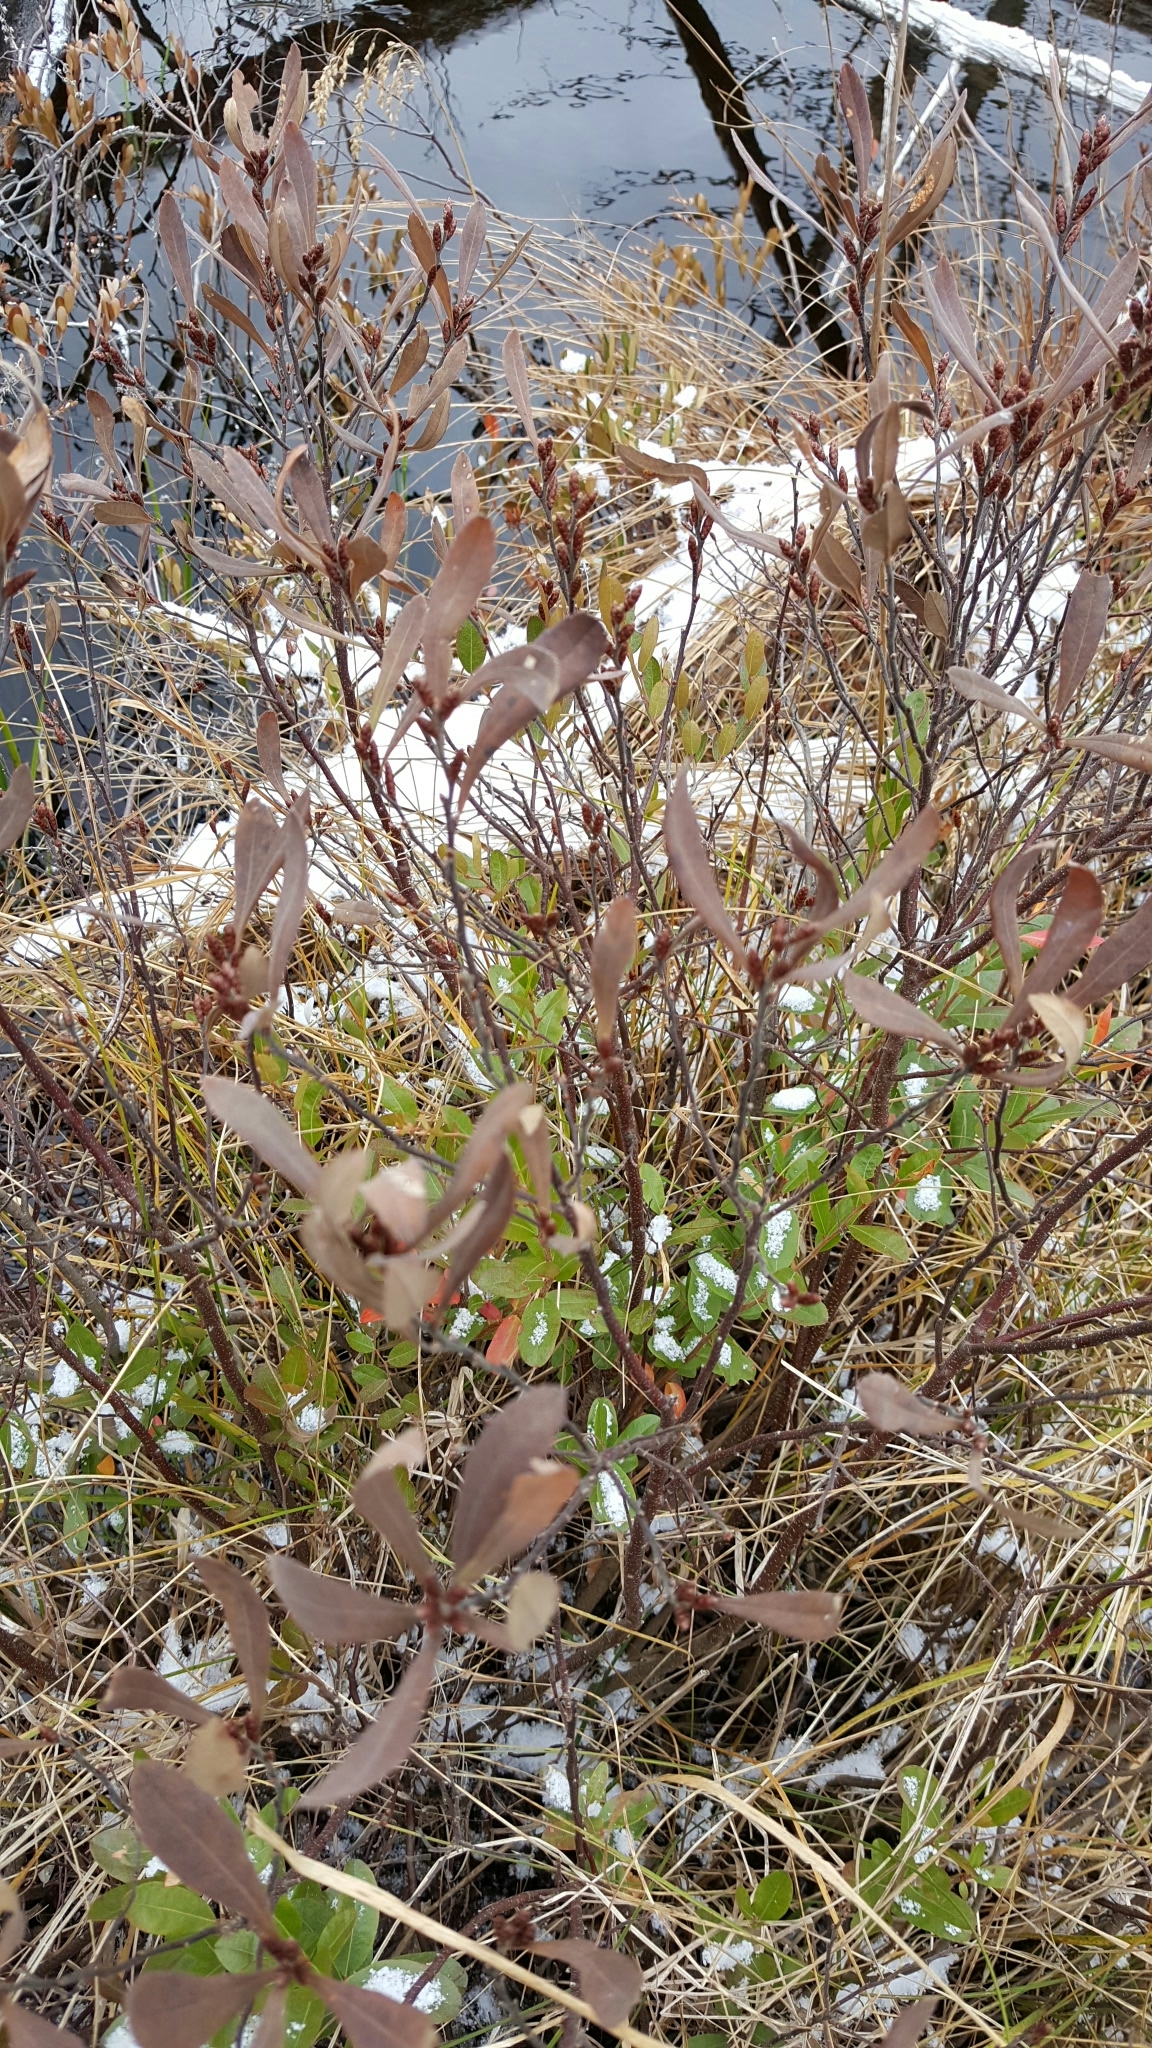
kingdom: Plantae
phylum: Tracheophyta
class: Magnoliopsida
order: Fagales
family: Myricaceae
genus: Myrica
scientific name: Myrica gale
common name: Sweet gale
